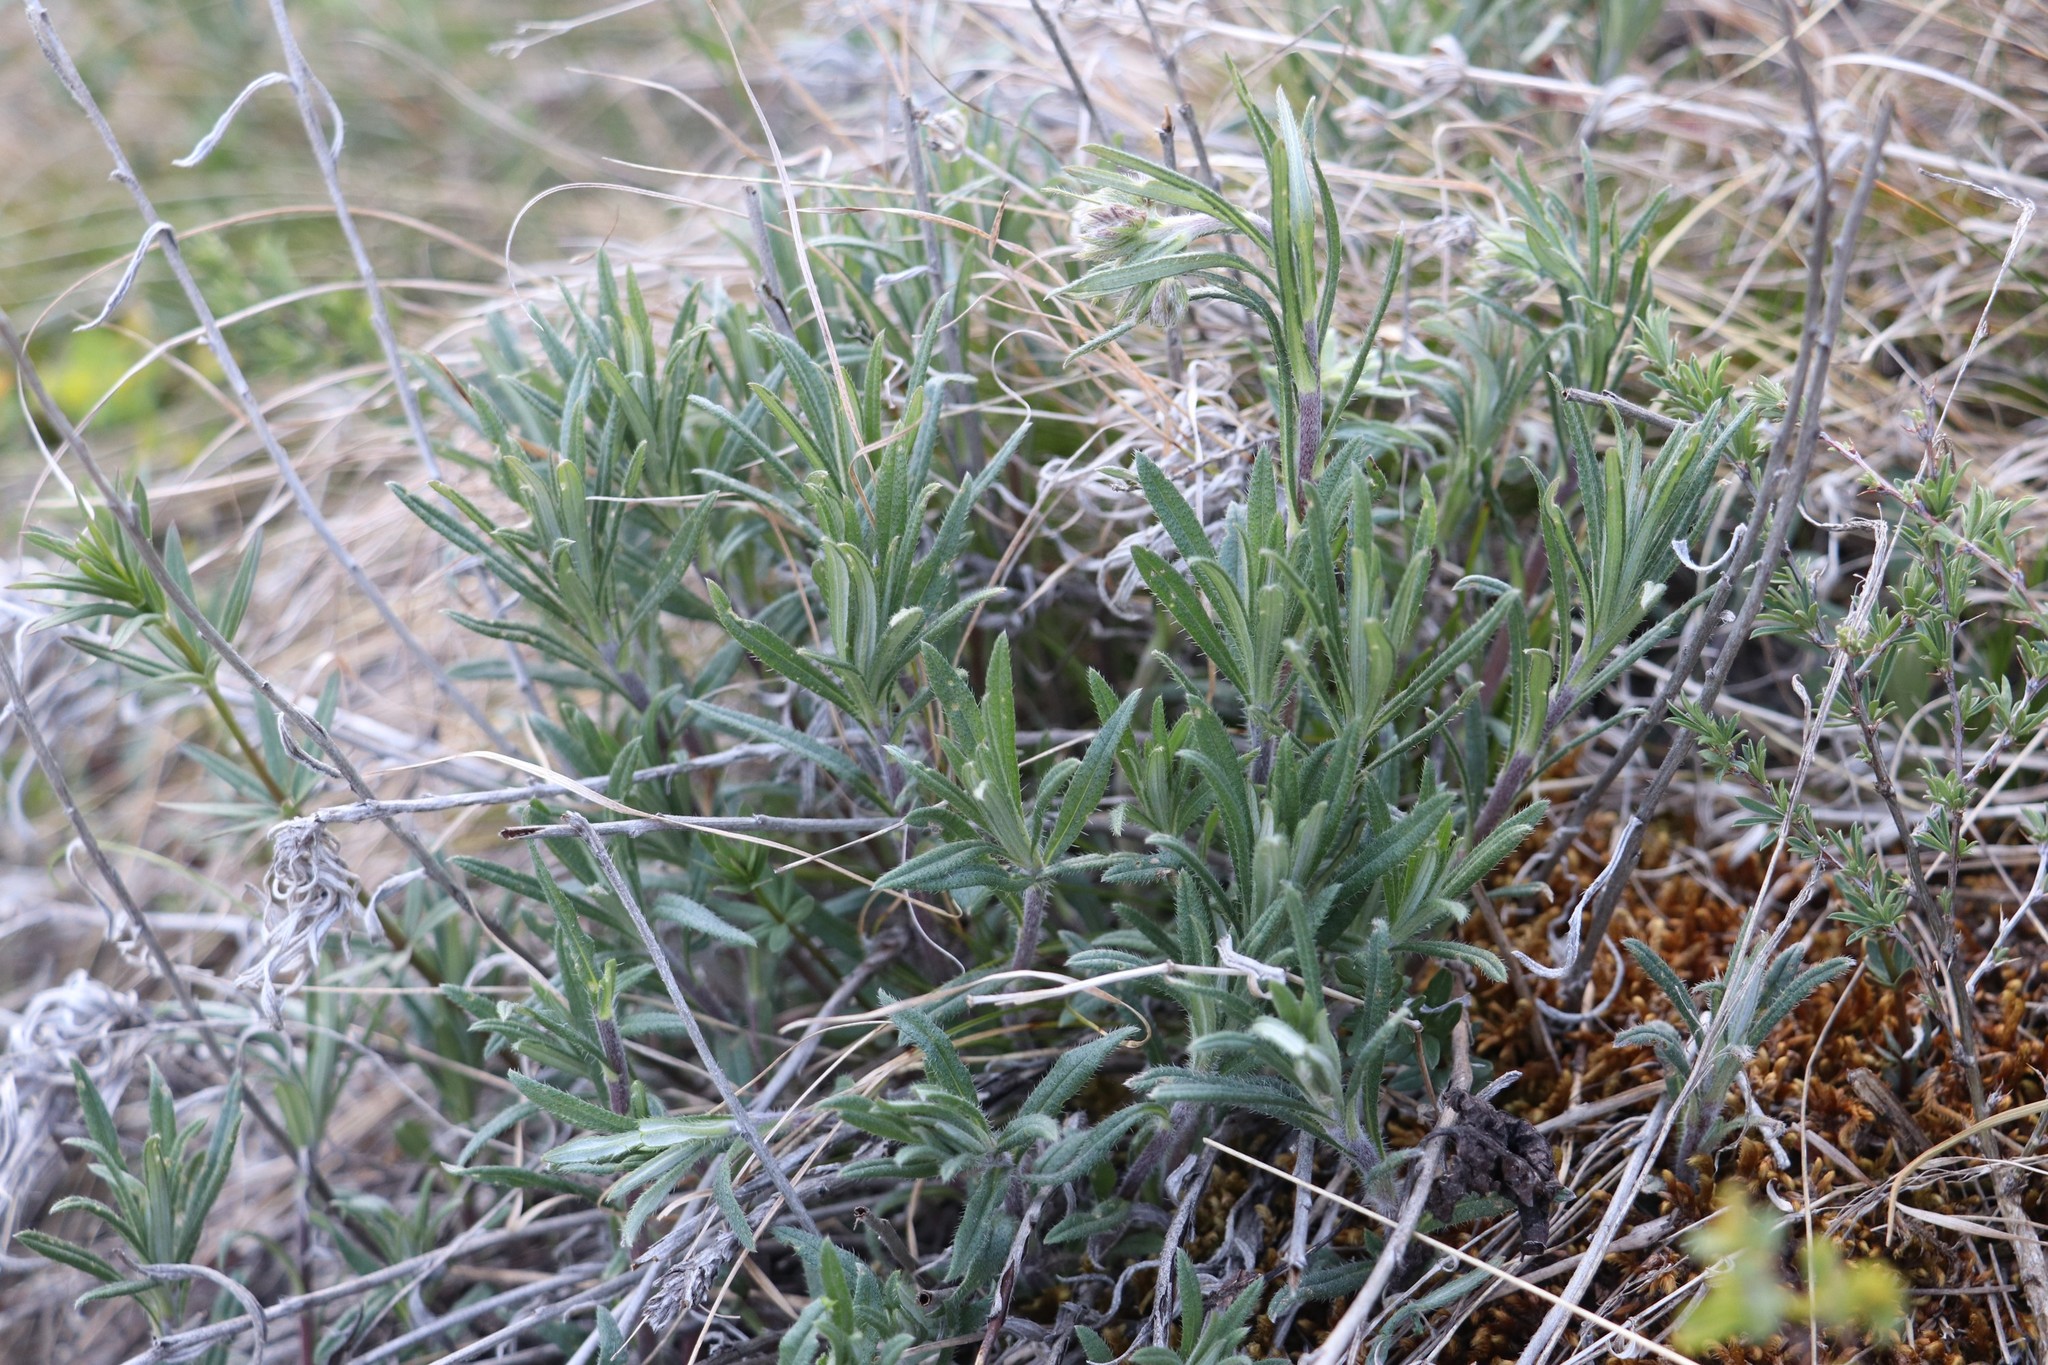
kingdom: Plantae
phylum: Tracheophyta
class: Magnoliopsida
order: Boraginales
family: Boraginaceae
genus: Onosma
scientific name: Onosma simplicissima
